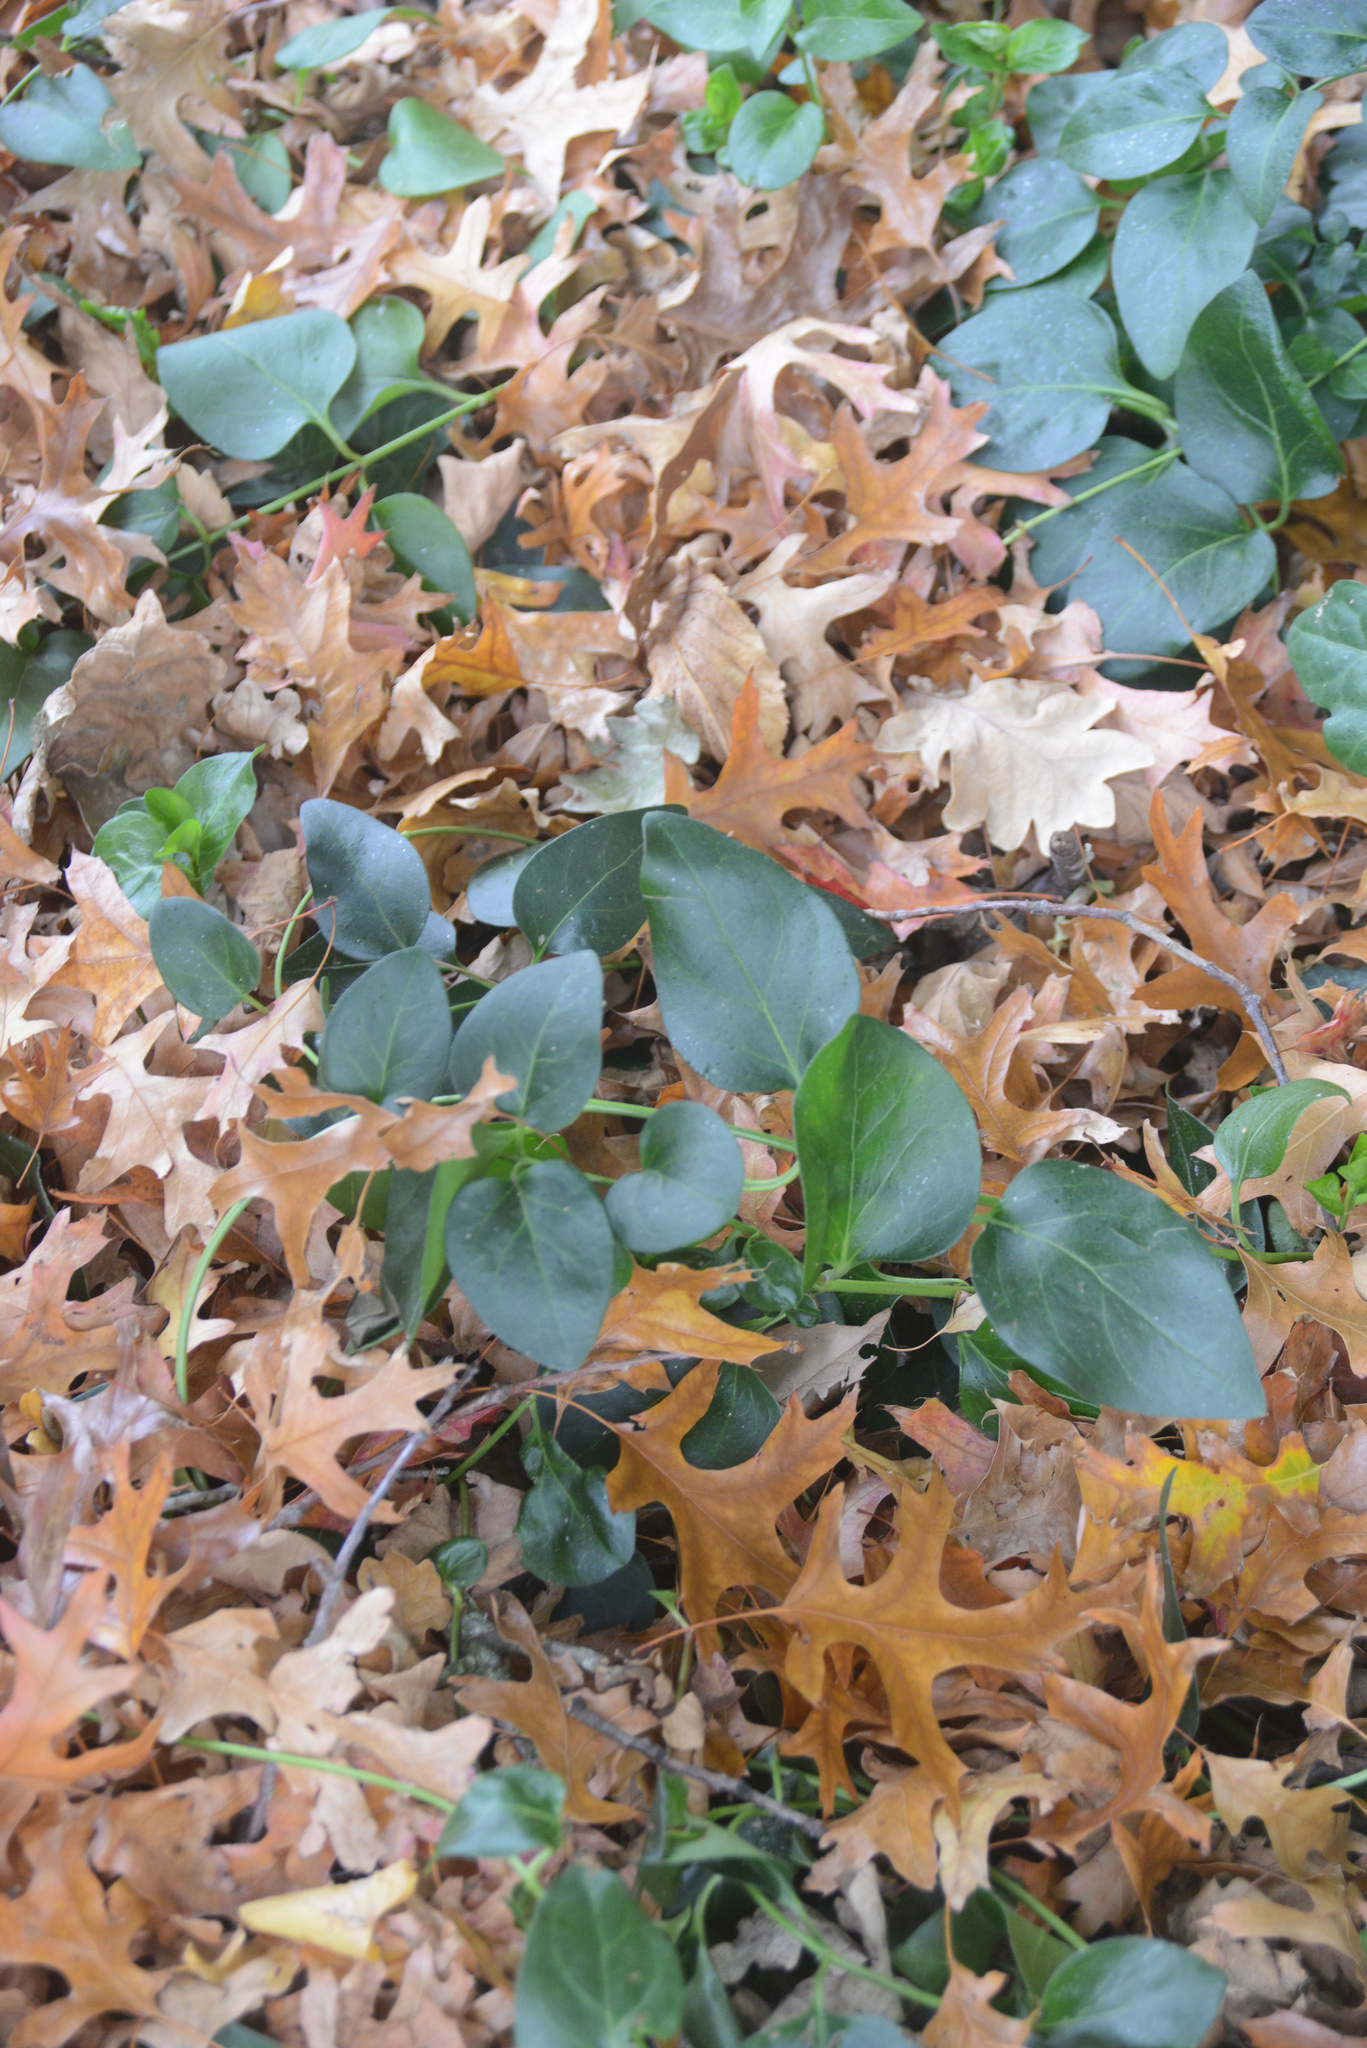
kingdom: Plantae
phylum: Tracheophyta
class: Magnoliopsida
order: Gentianales
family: Apocynaceae
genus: Vinca
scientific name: Vinca major
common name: Greater periwinkle
